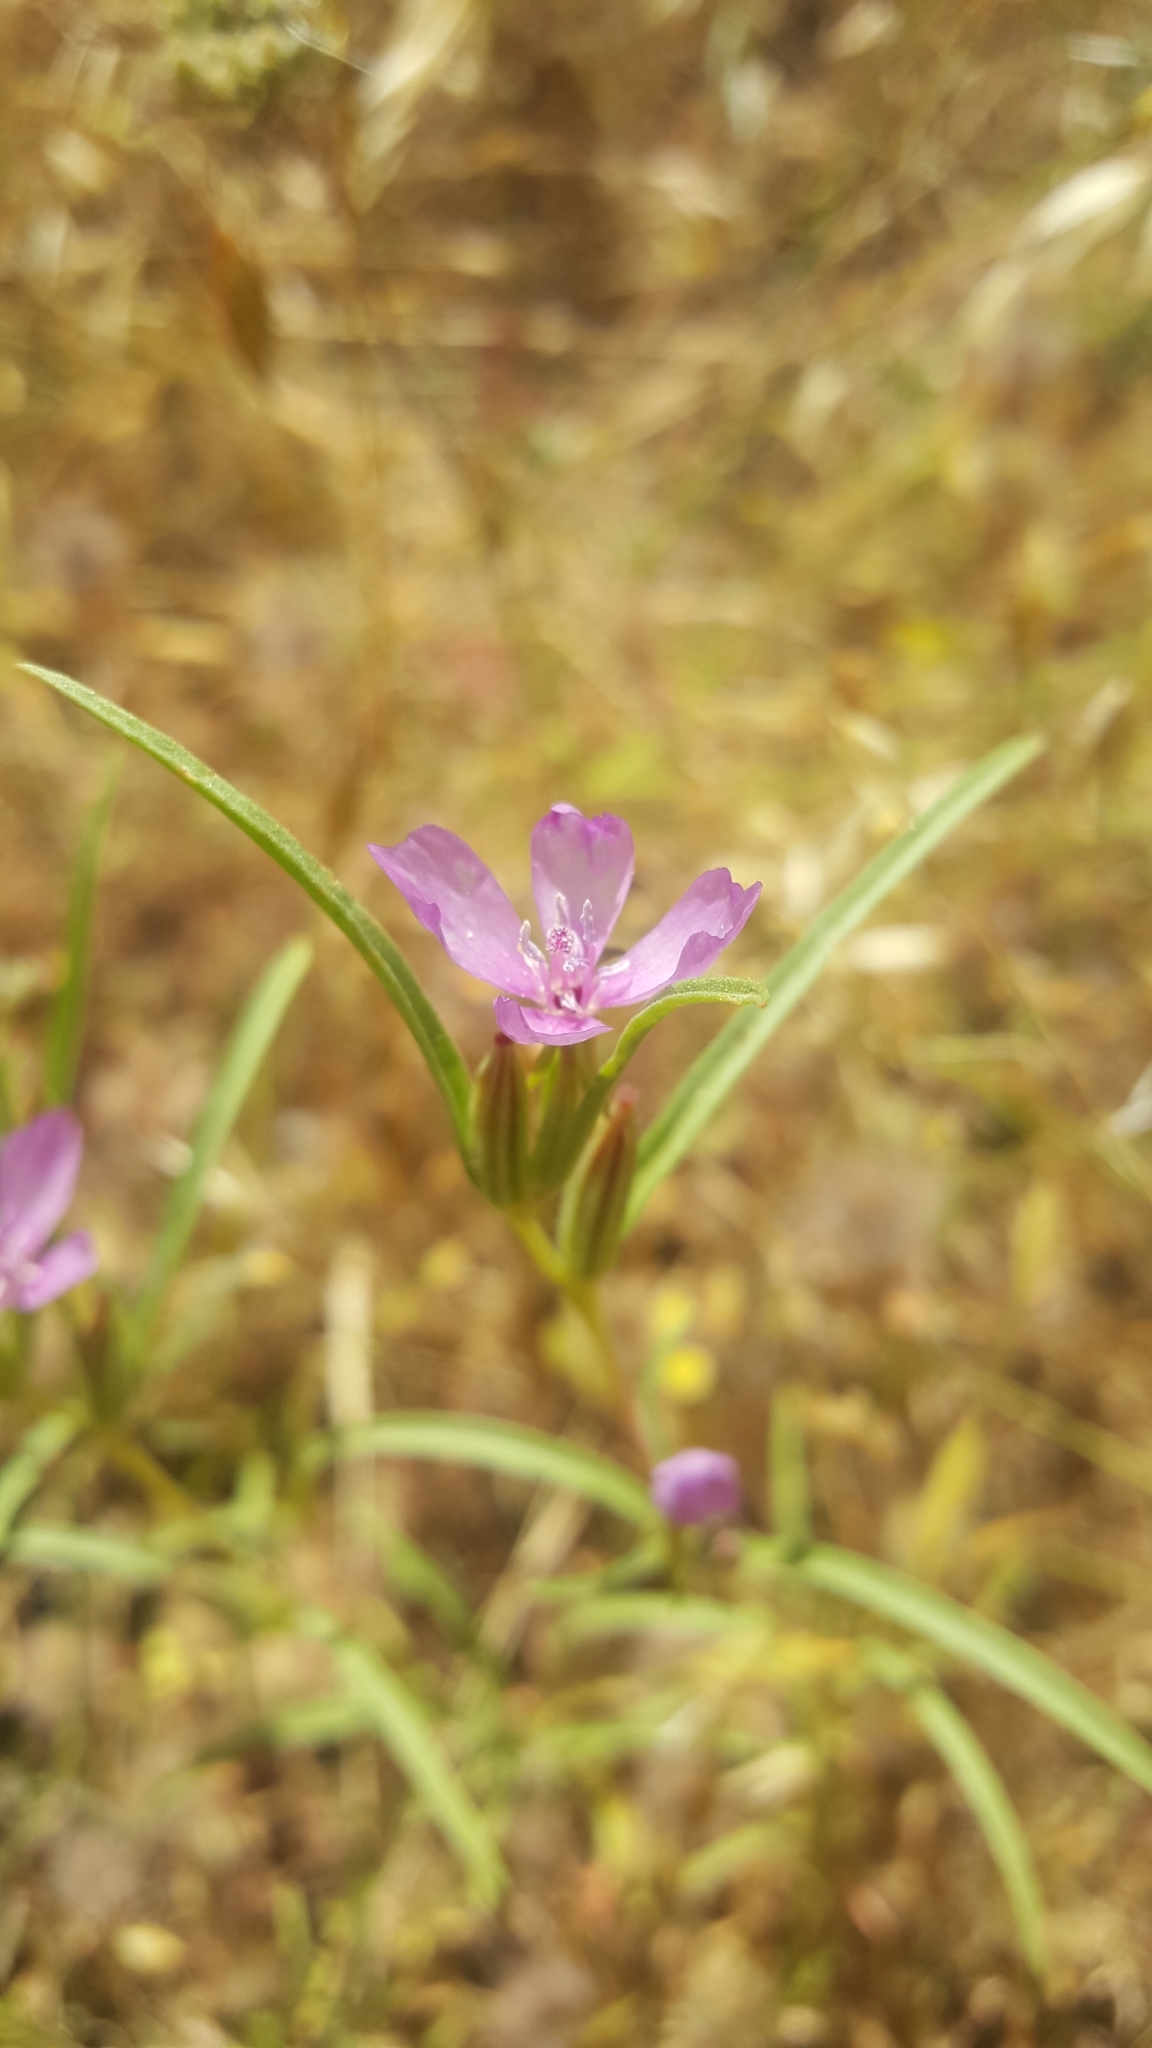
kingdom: Plantae
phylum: Tracheophyta
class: Magnoliopsida
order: Myrtales
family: Onagraceae
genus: Clarkia
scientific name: Clarkia purpurea
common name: Purple clarkia
